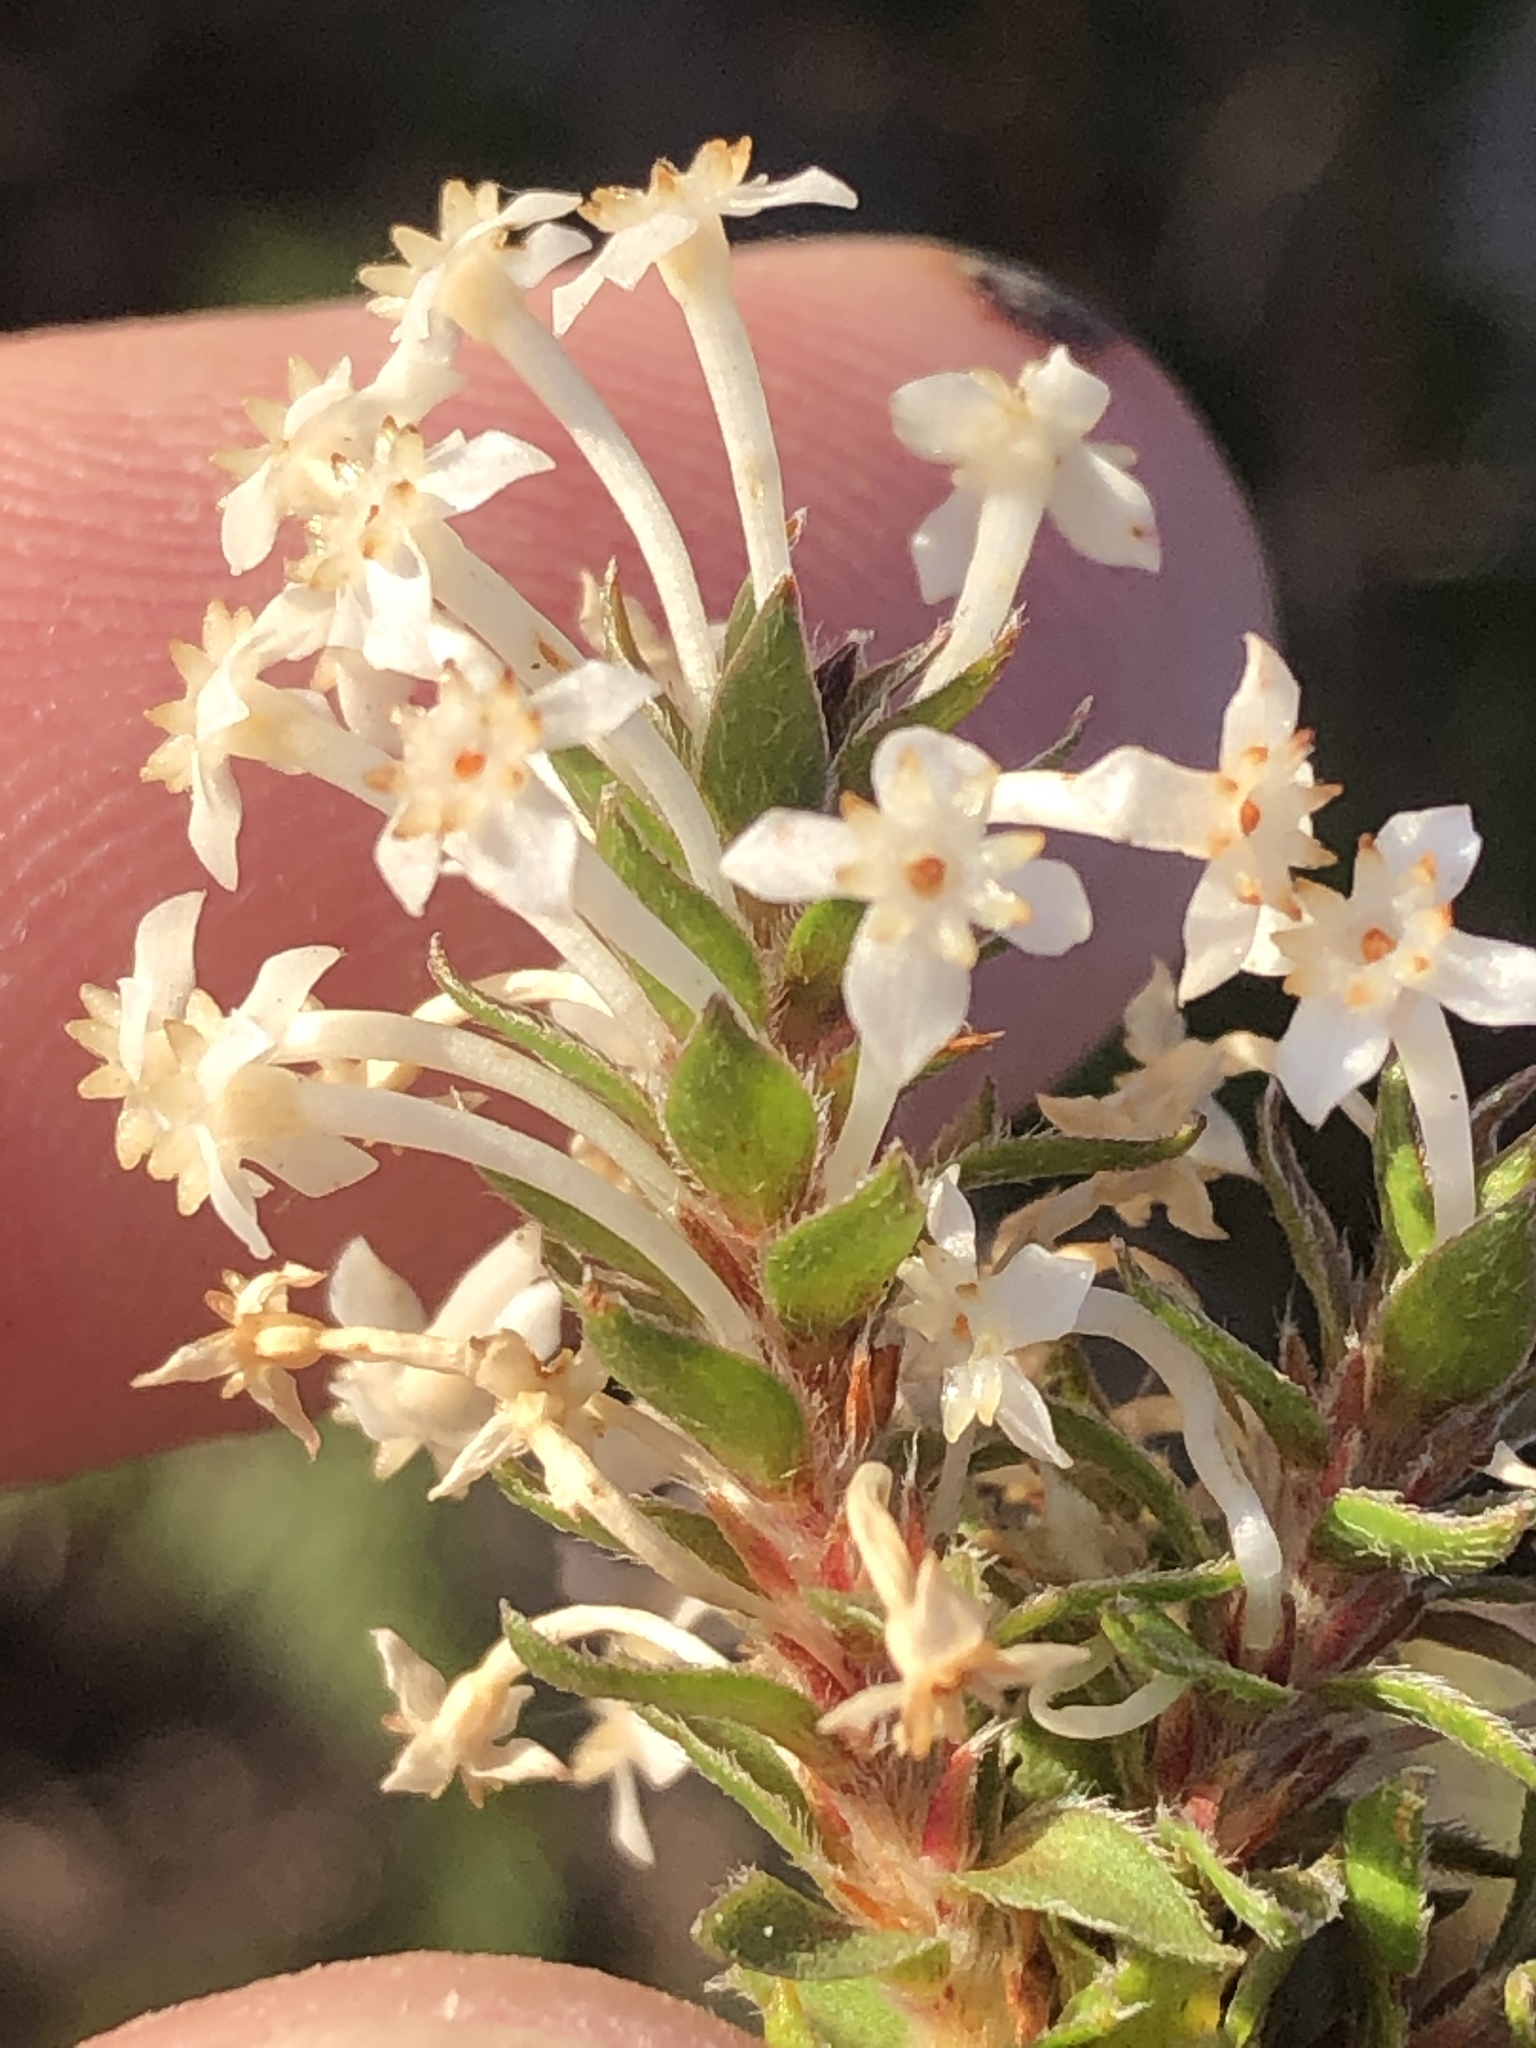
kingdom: Plantae
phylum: Tracheophyta
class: Magnoliopsida
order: Malvales
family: Thymelaeaceae
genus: Struthiola
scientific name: Struthiola hirsuta
